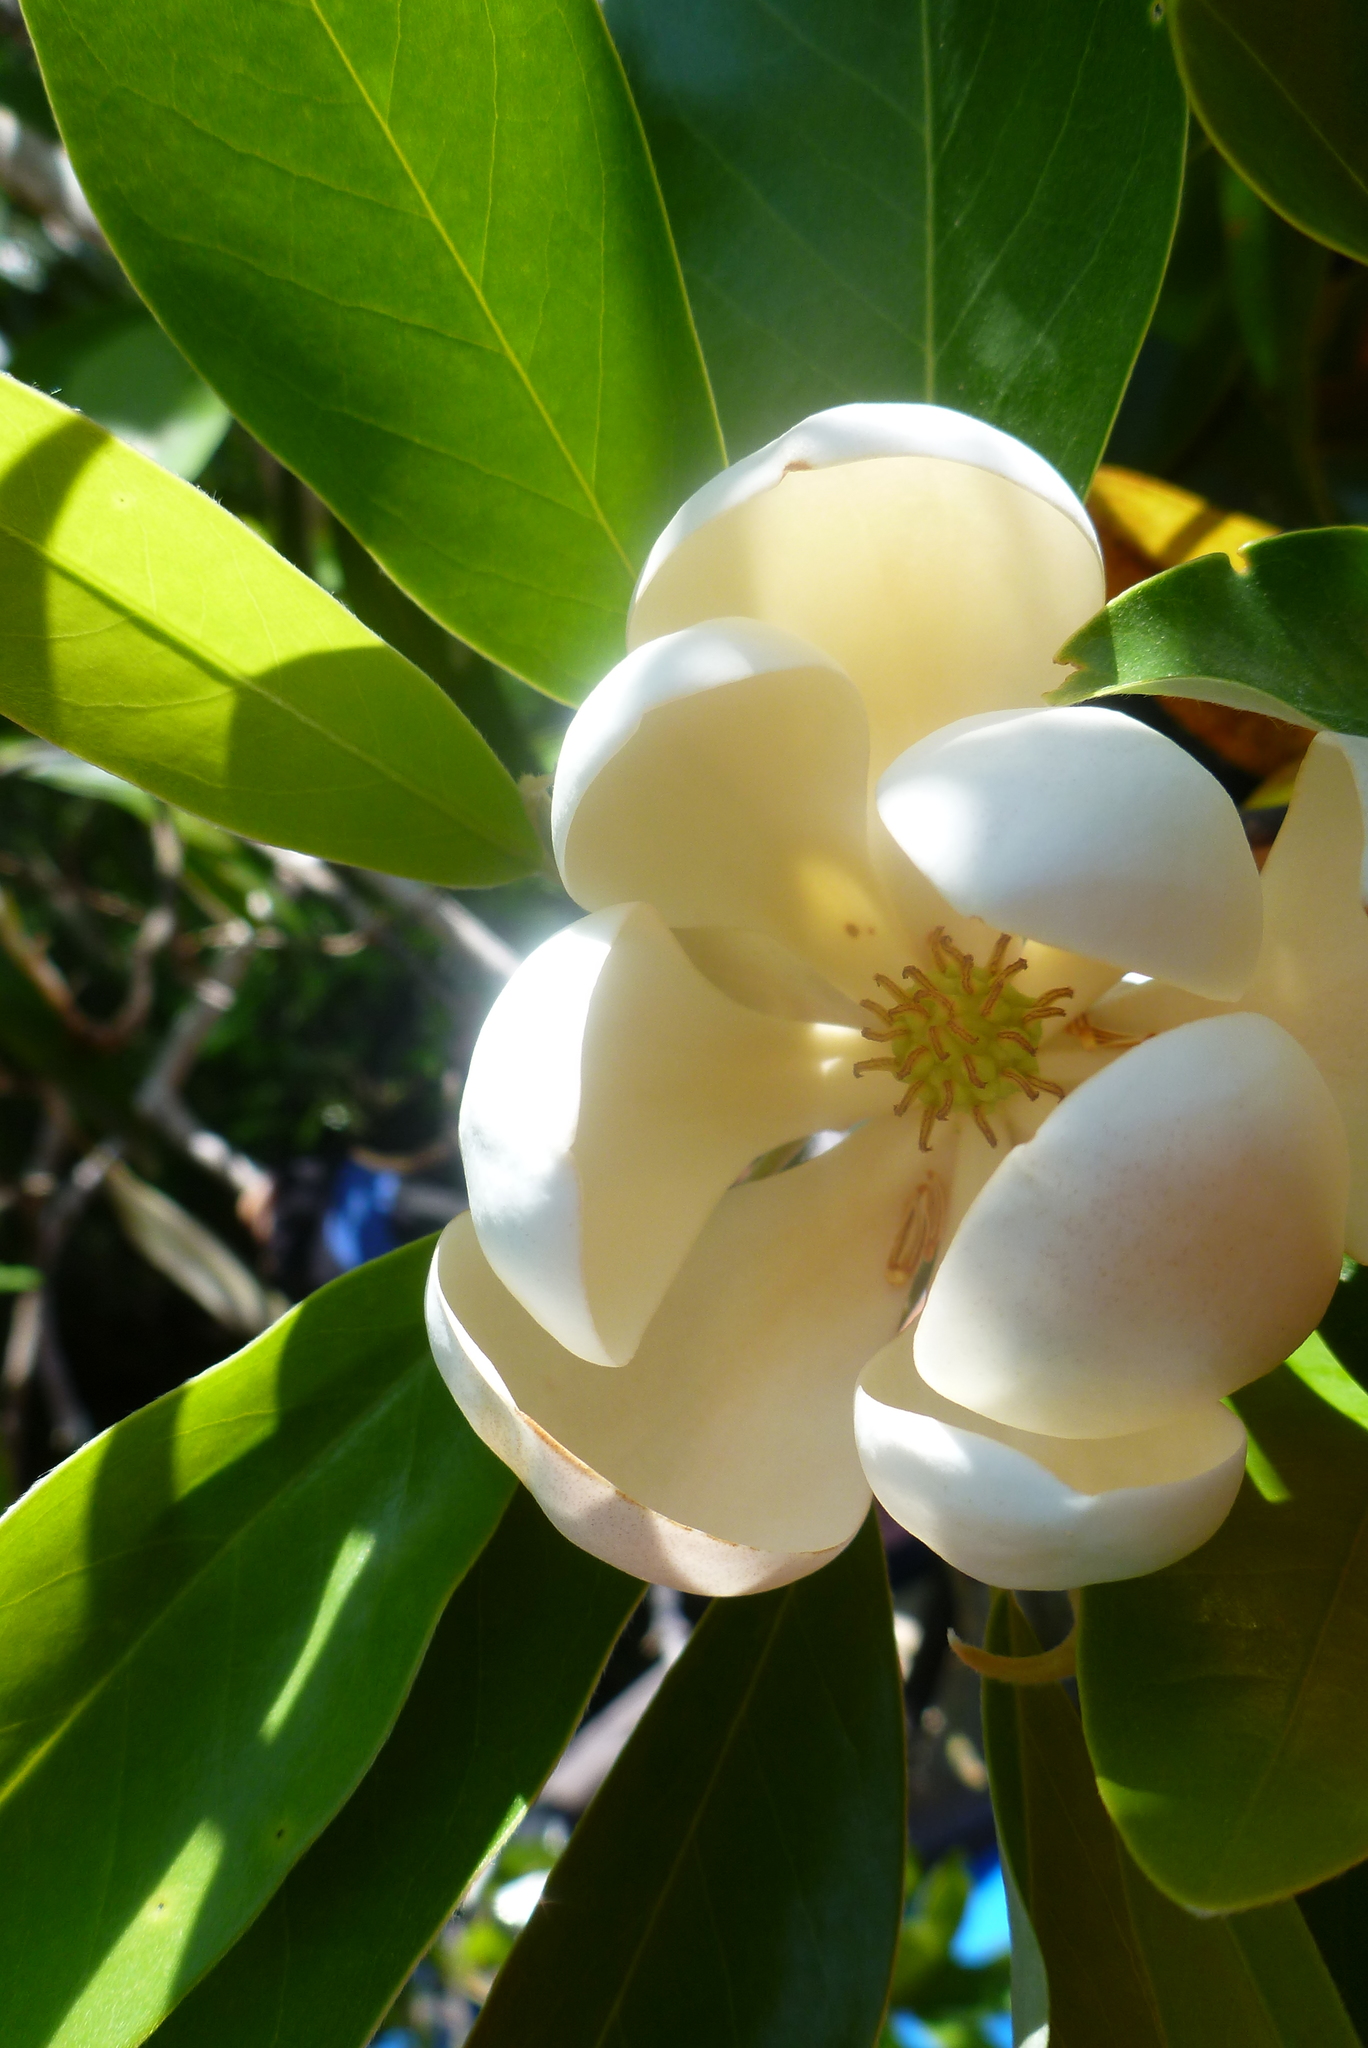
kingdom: Plantae
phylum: Tracheophyta
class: Magnoliopsida
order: Magnoliales
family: Magnoliaceae
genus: Magnolia
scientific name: Magnolia virginiana
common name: Swamp bay
